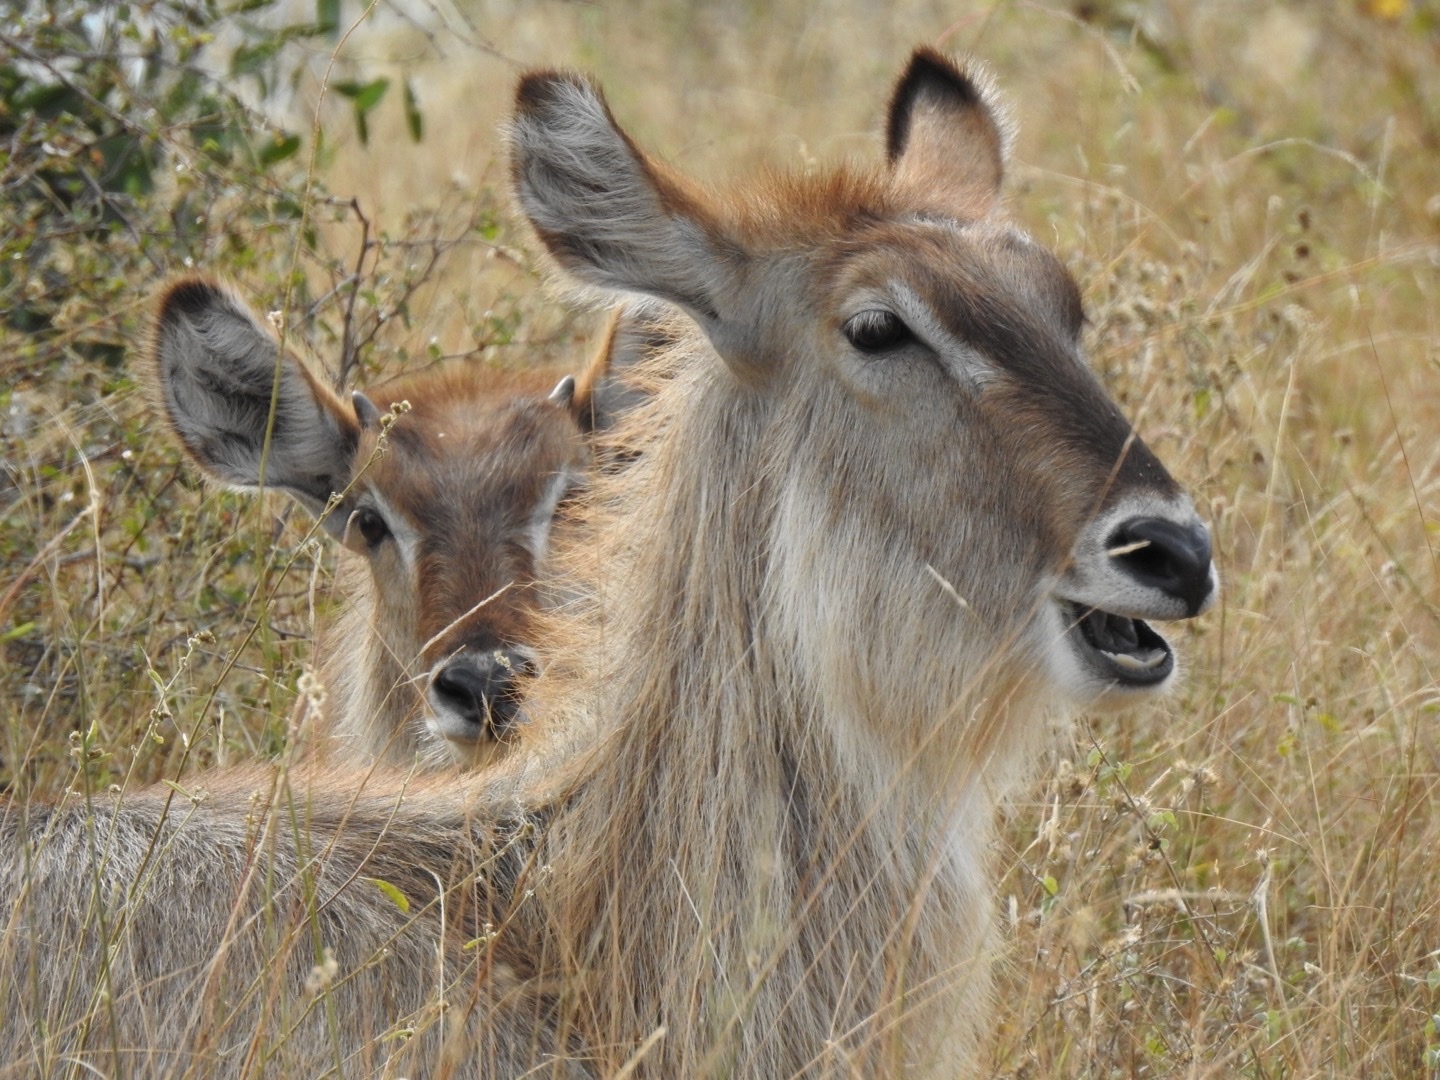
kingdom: Animalia
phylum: Chordata
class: Mammalia
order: Artiodactyla
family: Bovidae
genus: Kobus
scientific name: Kobus ellipsiprymnus
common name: Waterbuck
